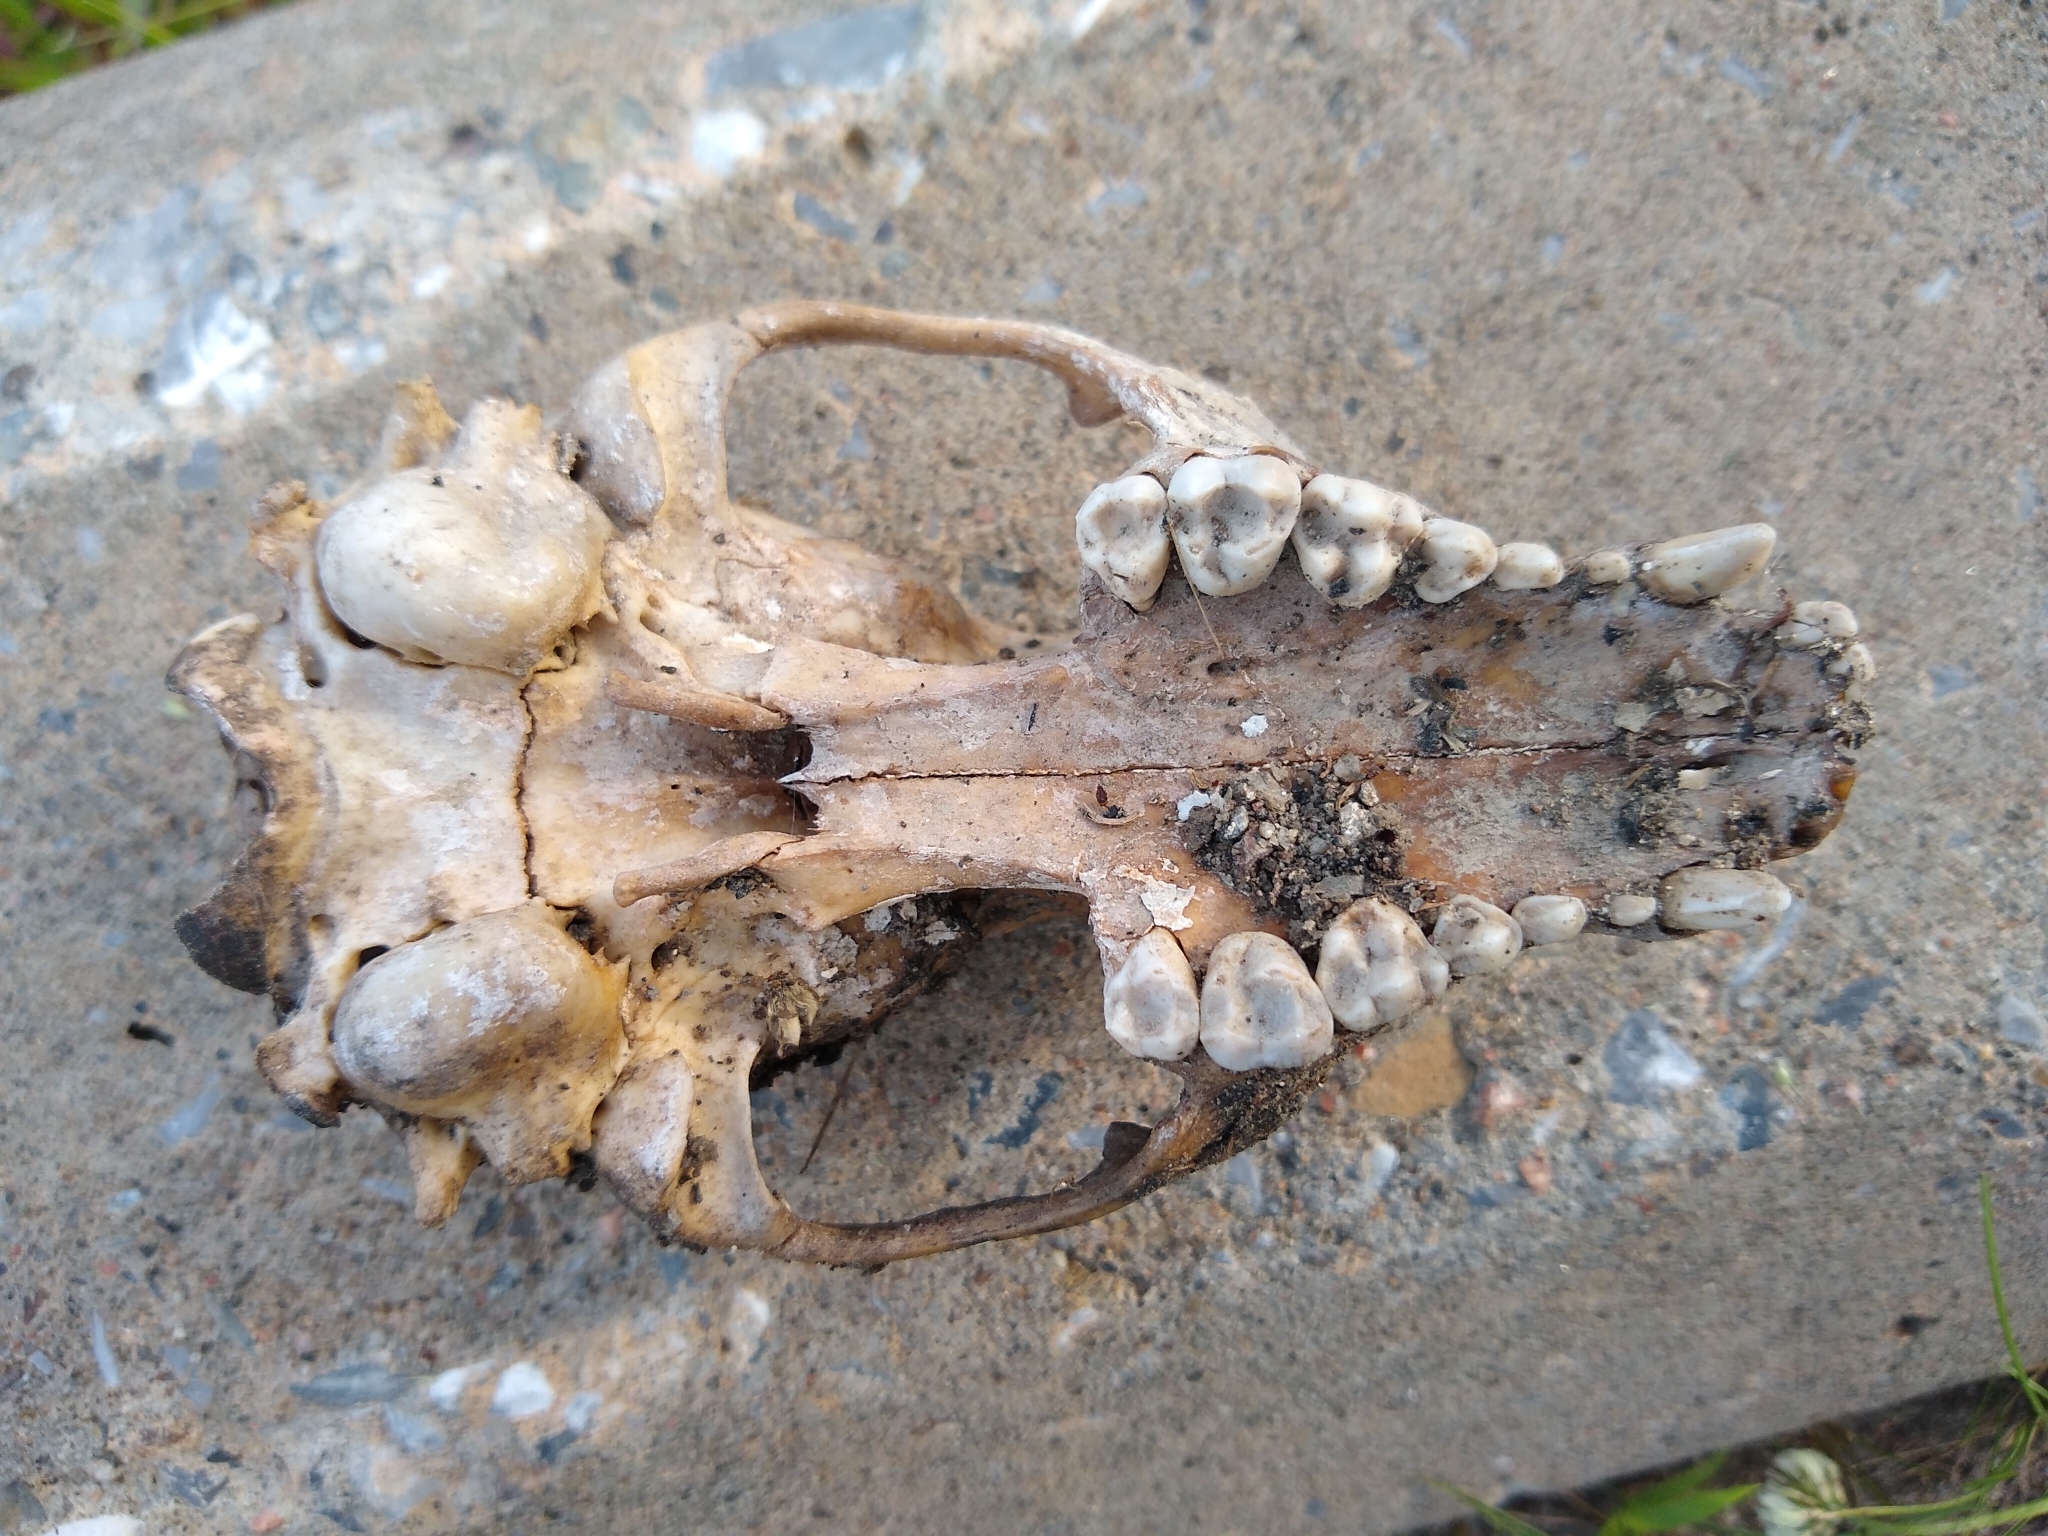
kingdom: Animalia
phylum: Chordata
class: Mammalia
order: Carnivora
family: Procyonidae
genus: Procyon
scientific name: Procyon lotor
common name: Raccoon
